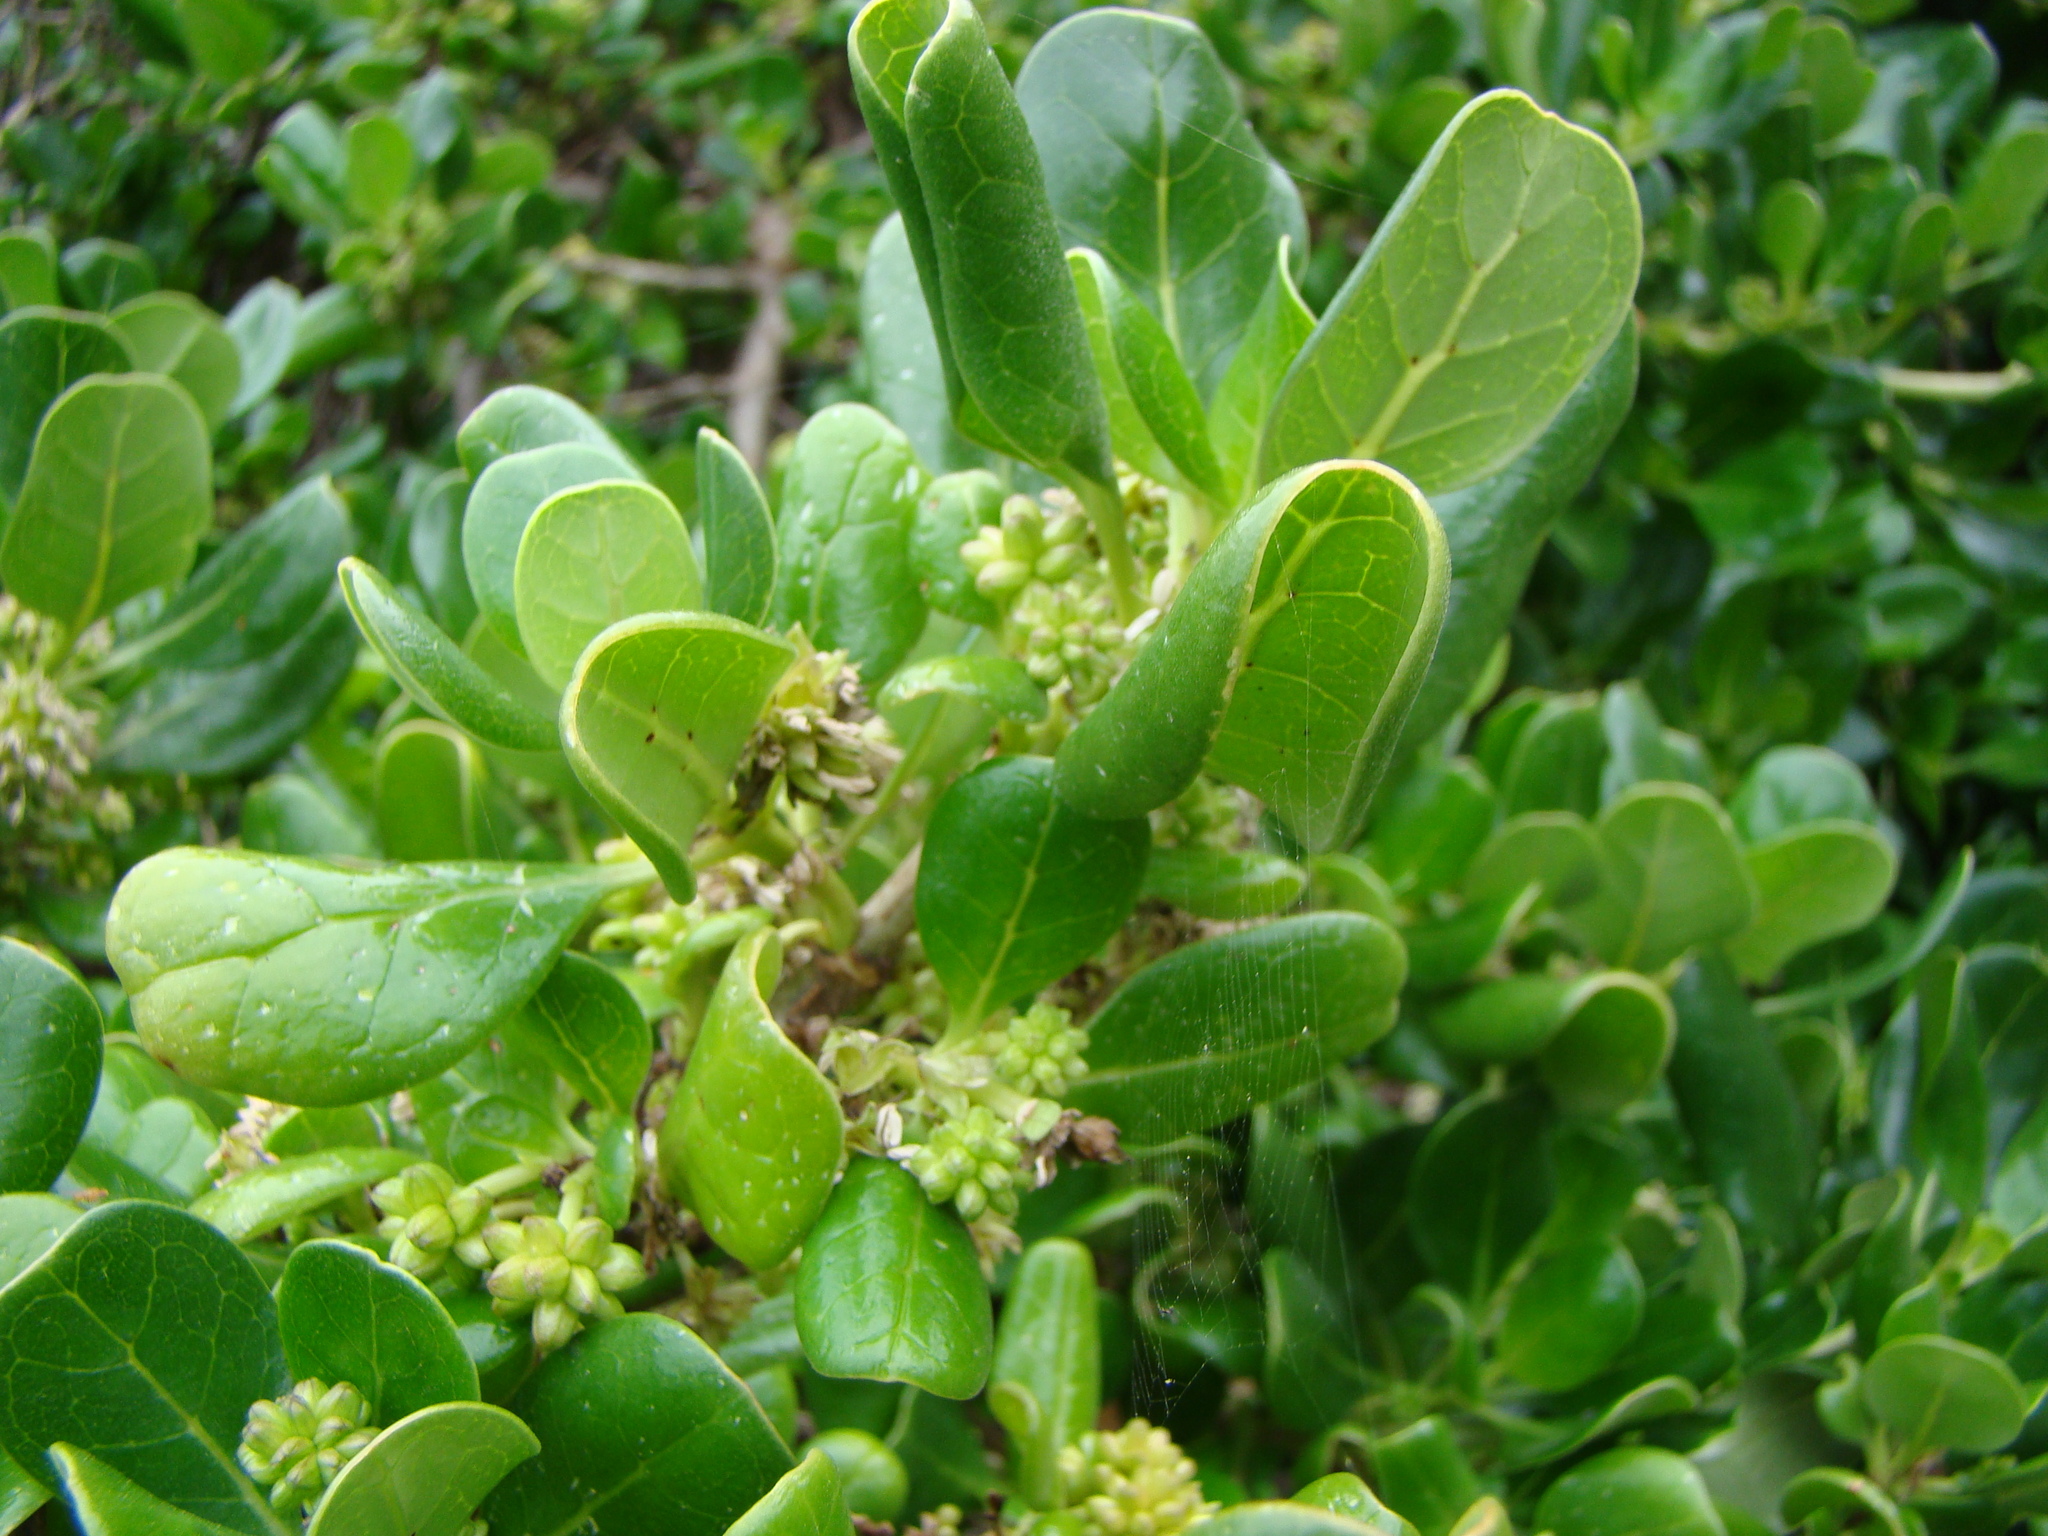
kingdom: Plantae
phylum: Tracheophyta
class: Magnoliopsida
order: Gentianales
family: Rubiaceae
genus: Coprosma
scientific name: Coprosma repens
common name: Tree bedstraw
